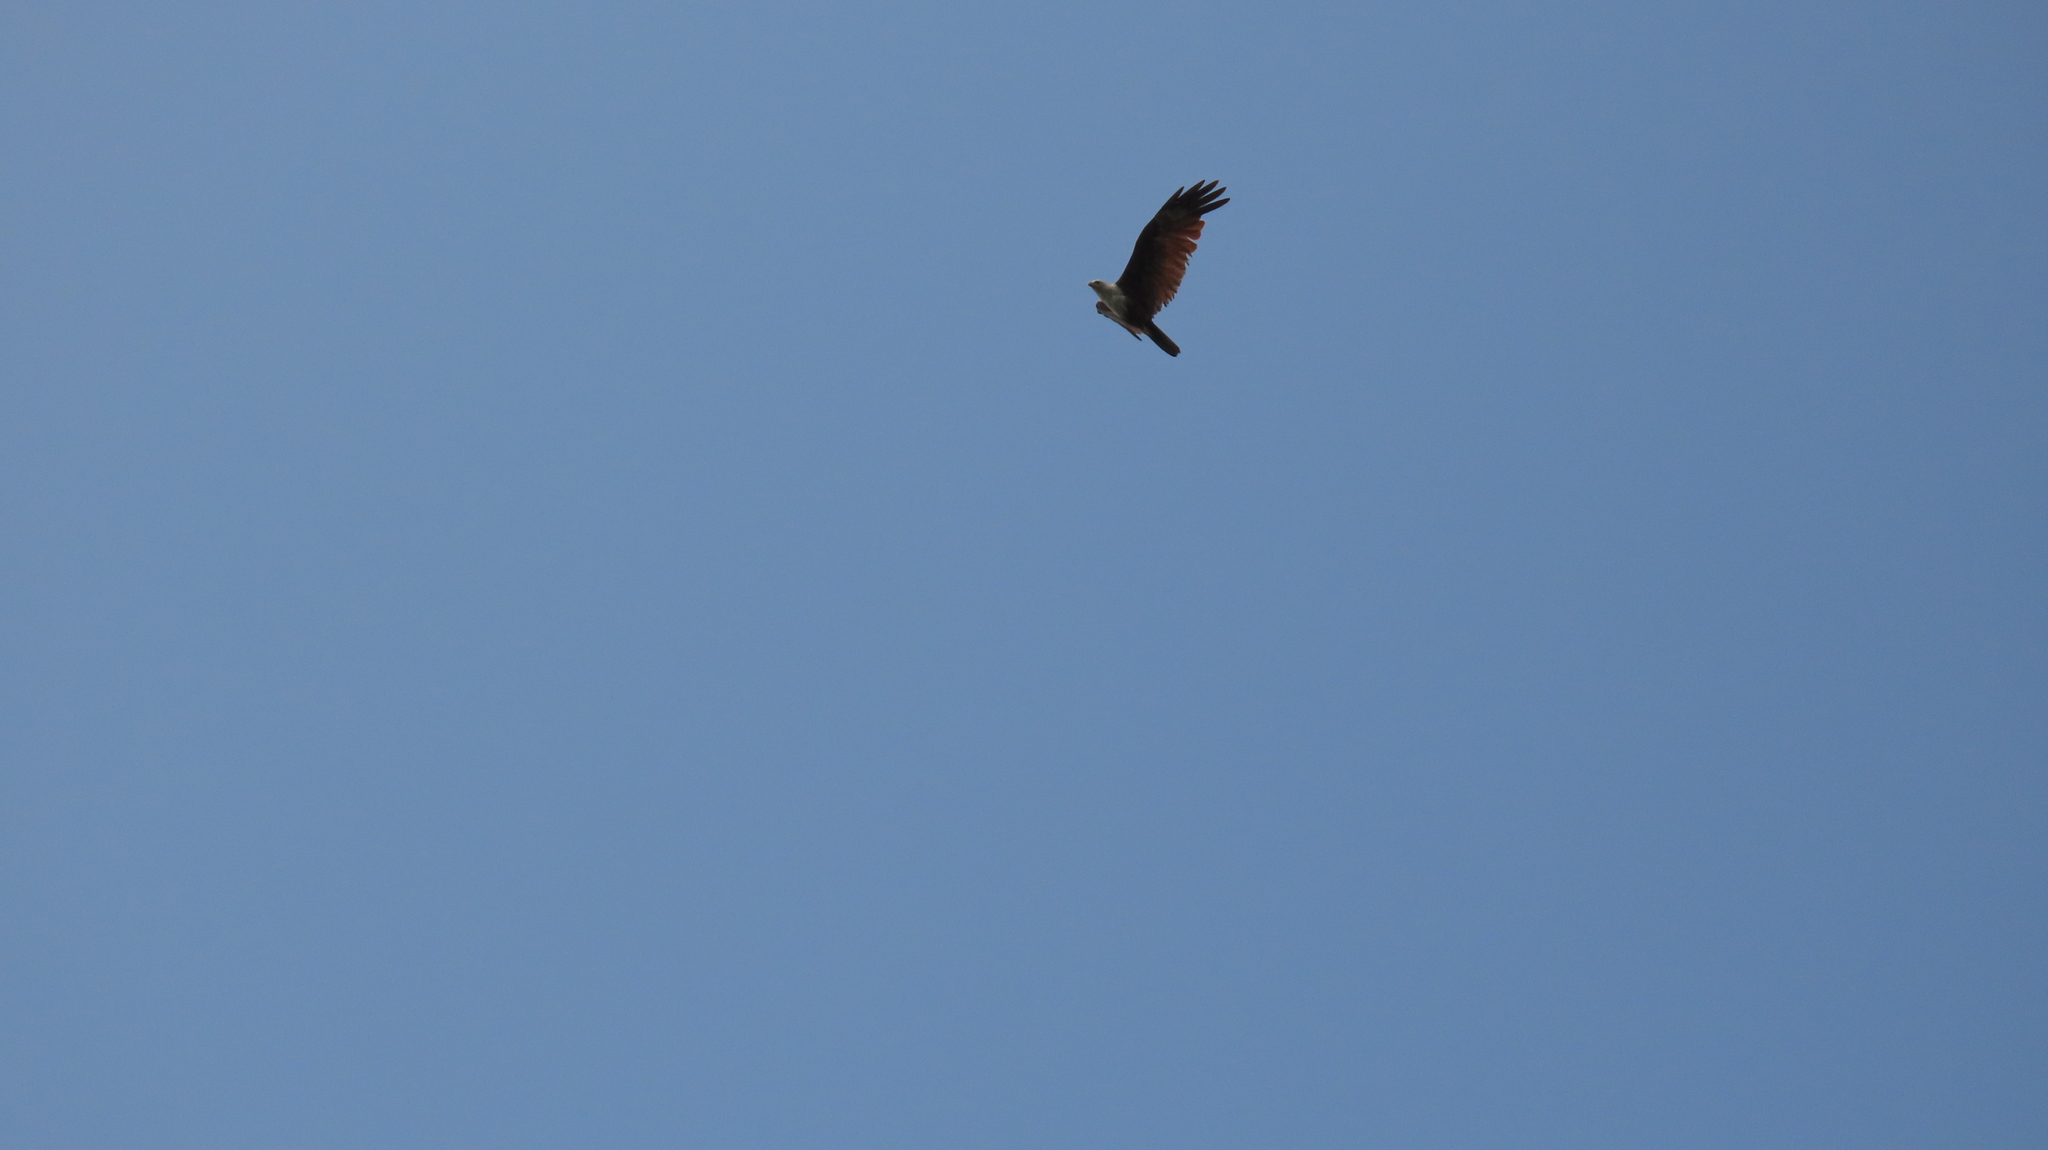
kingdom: Animalia
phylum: Chordata
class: Aves
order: Accipitriformes
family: Accipitridae
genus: Haliastur
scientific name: Haliastur indus
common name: Brahminy kite
